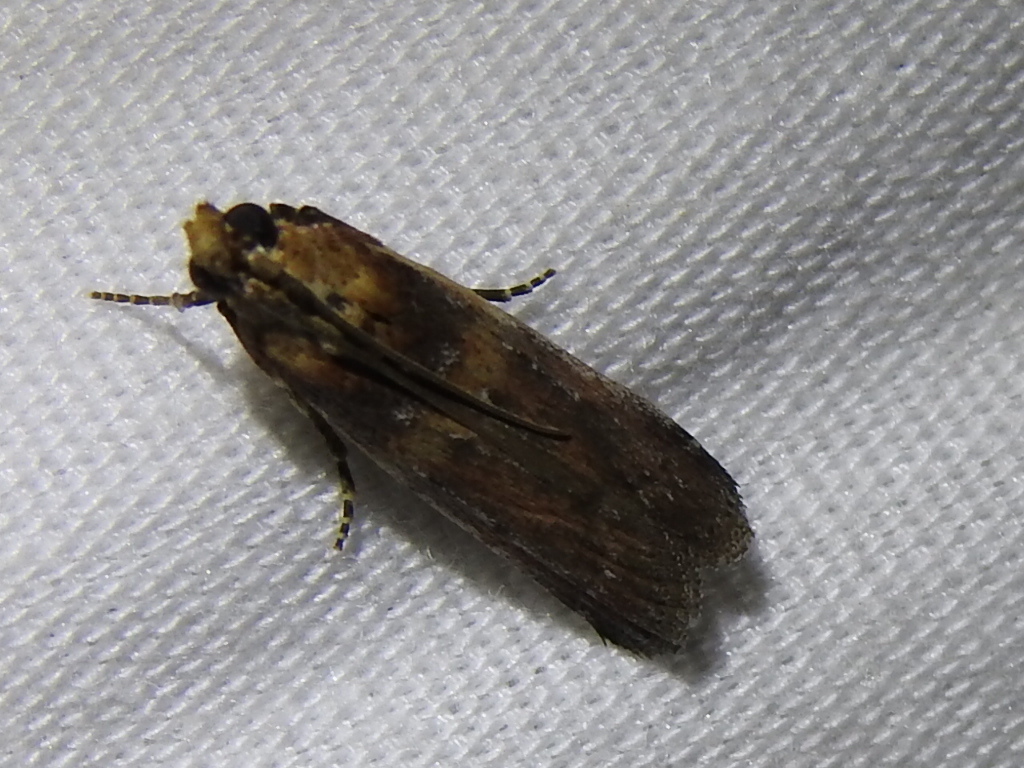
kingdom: Animalia
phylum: Arthropoda
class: Insecta
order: Lepidoptera
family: Pyralidae
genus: Adelphia
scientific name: Adelphia petrella
